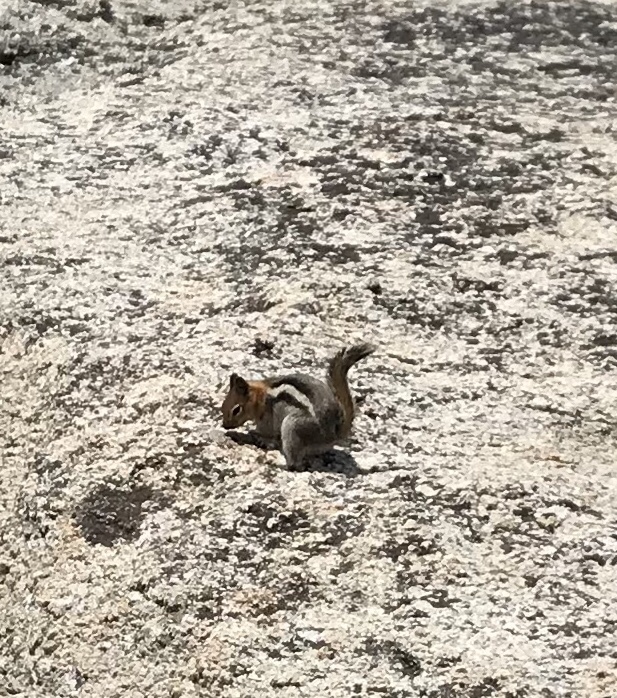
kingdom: Animalia
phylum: Chordata
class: Mammalia
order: Rodentia
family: Sciuridae
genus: Callospermophilus
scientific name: Callospermophilus lateralis
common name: Golden-mantled ground squirrel
